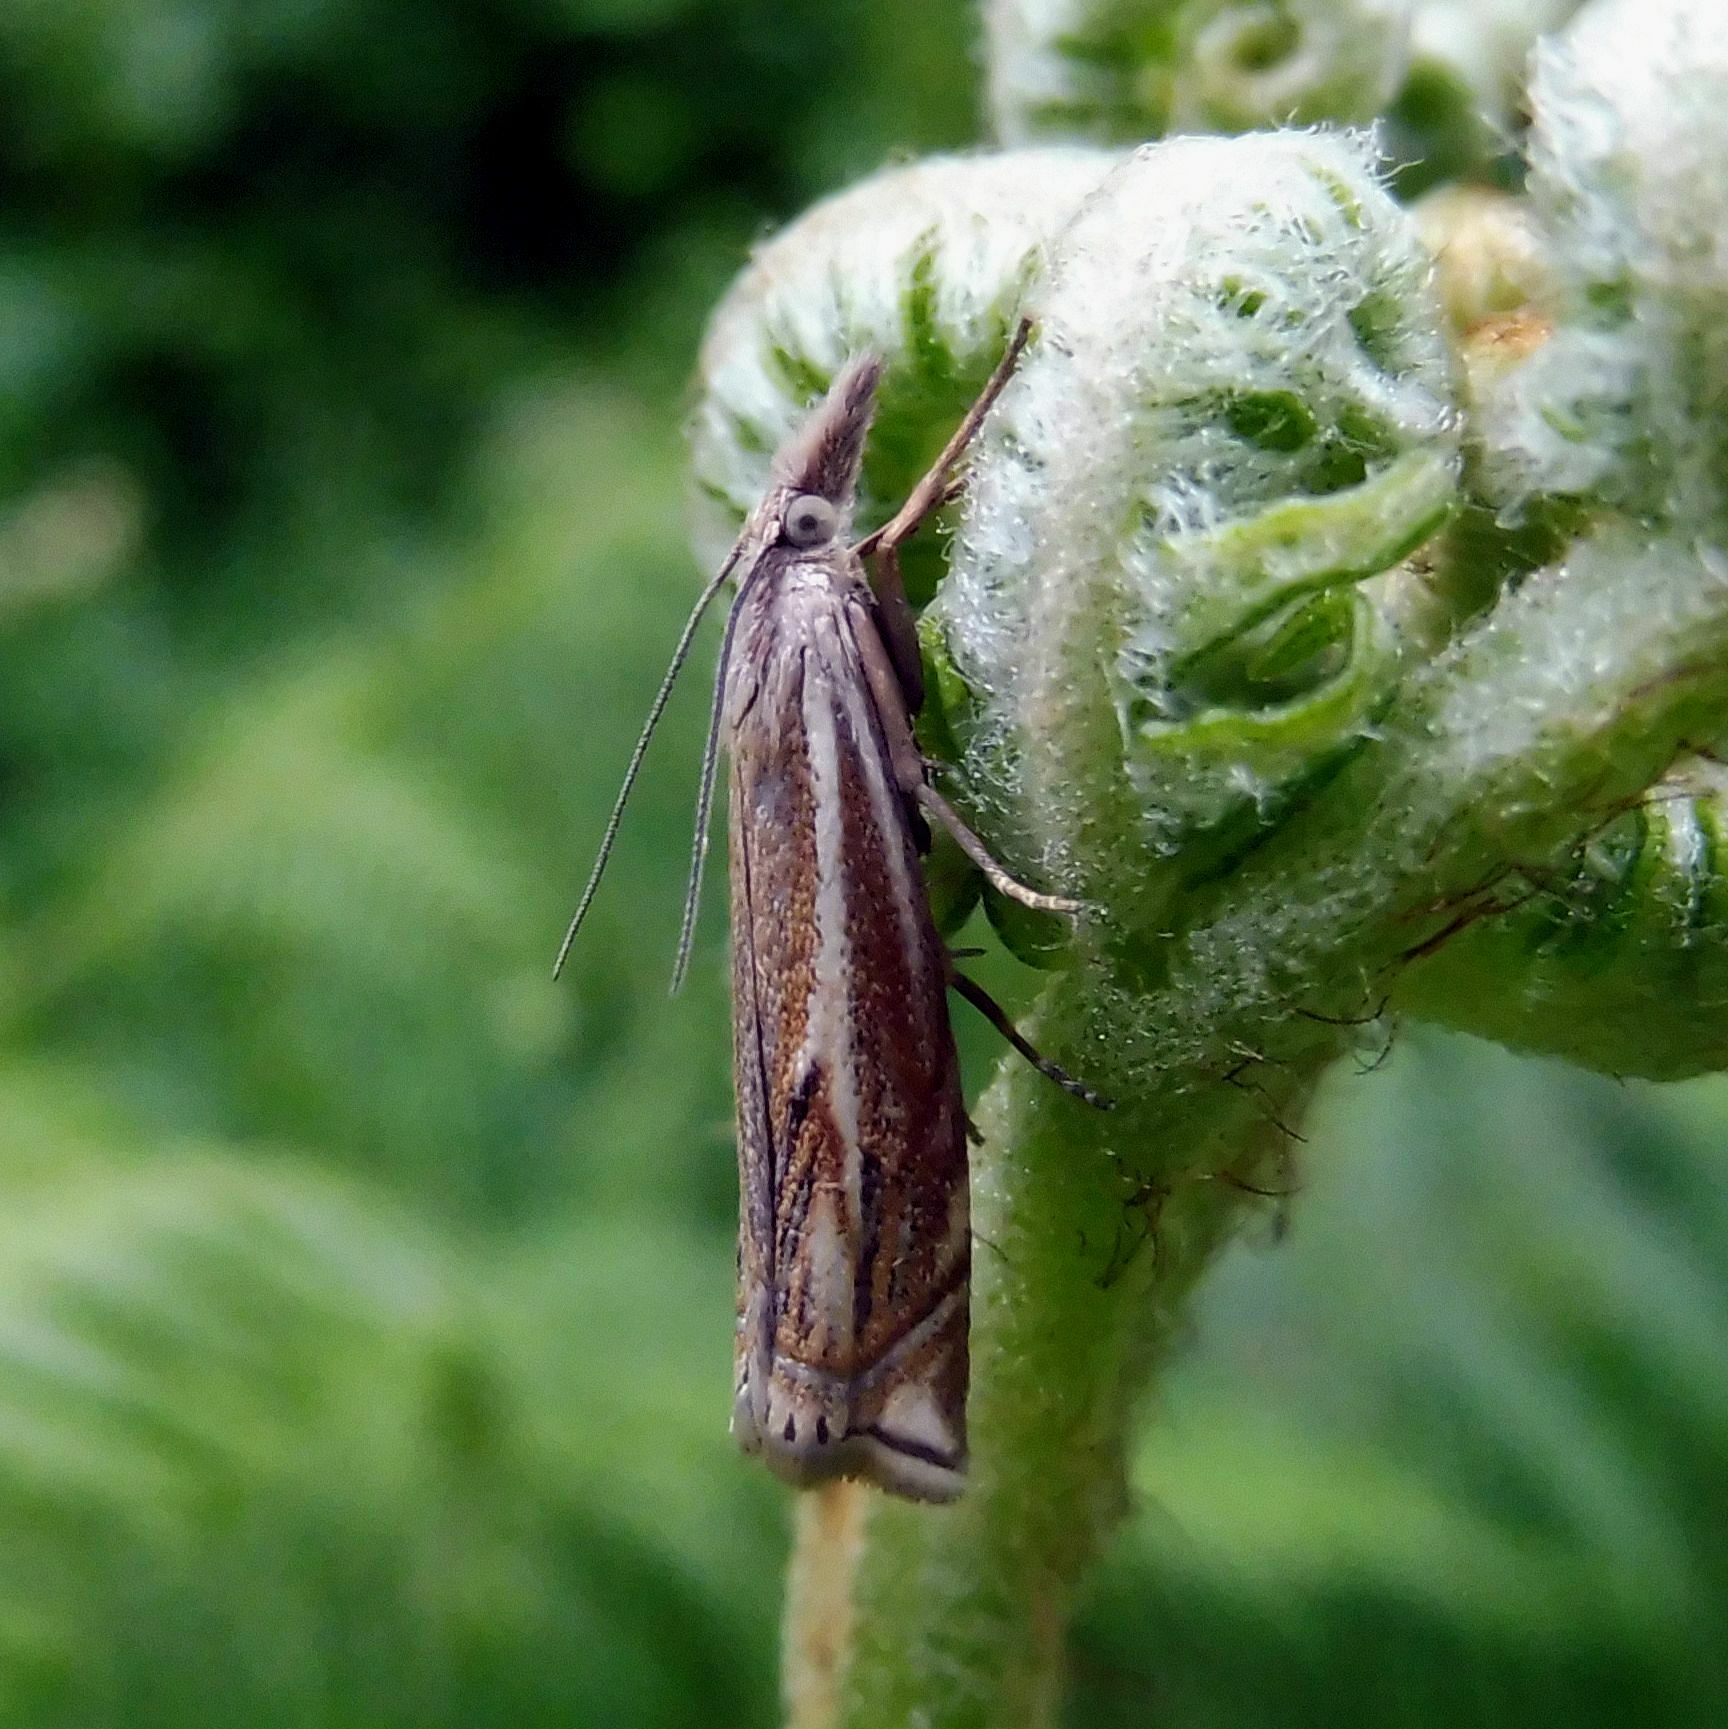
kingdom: Animalia
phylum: Arthropoda
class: Insecta
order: Lepidoptera
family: Crambidae
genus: Crambus
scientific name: Crambus nemorella
